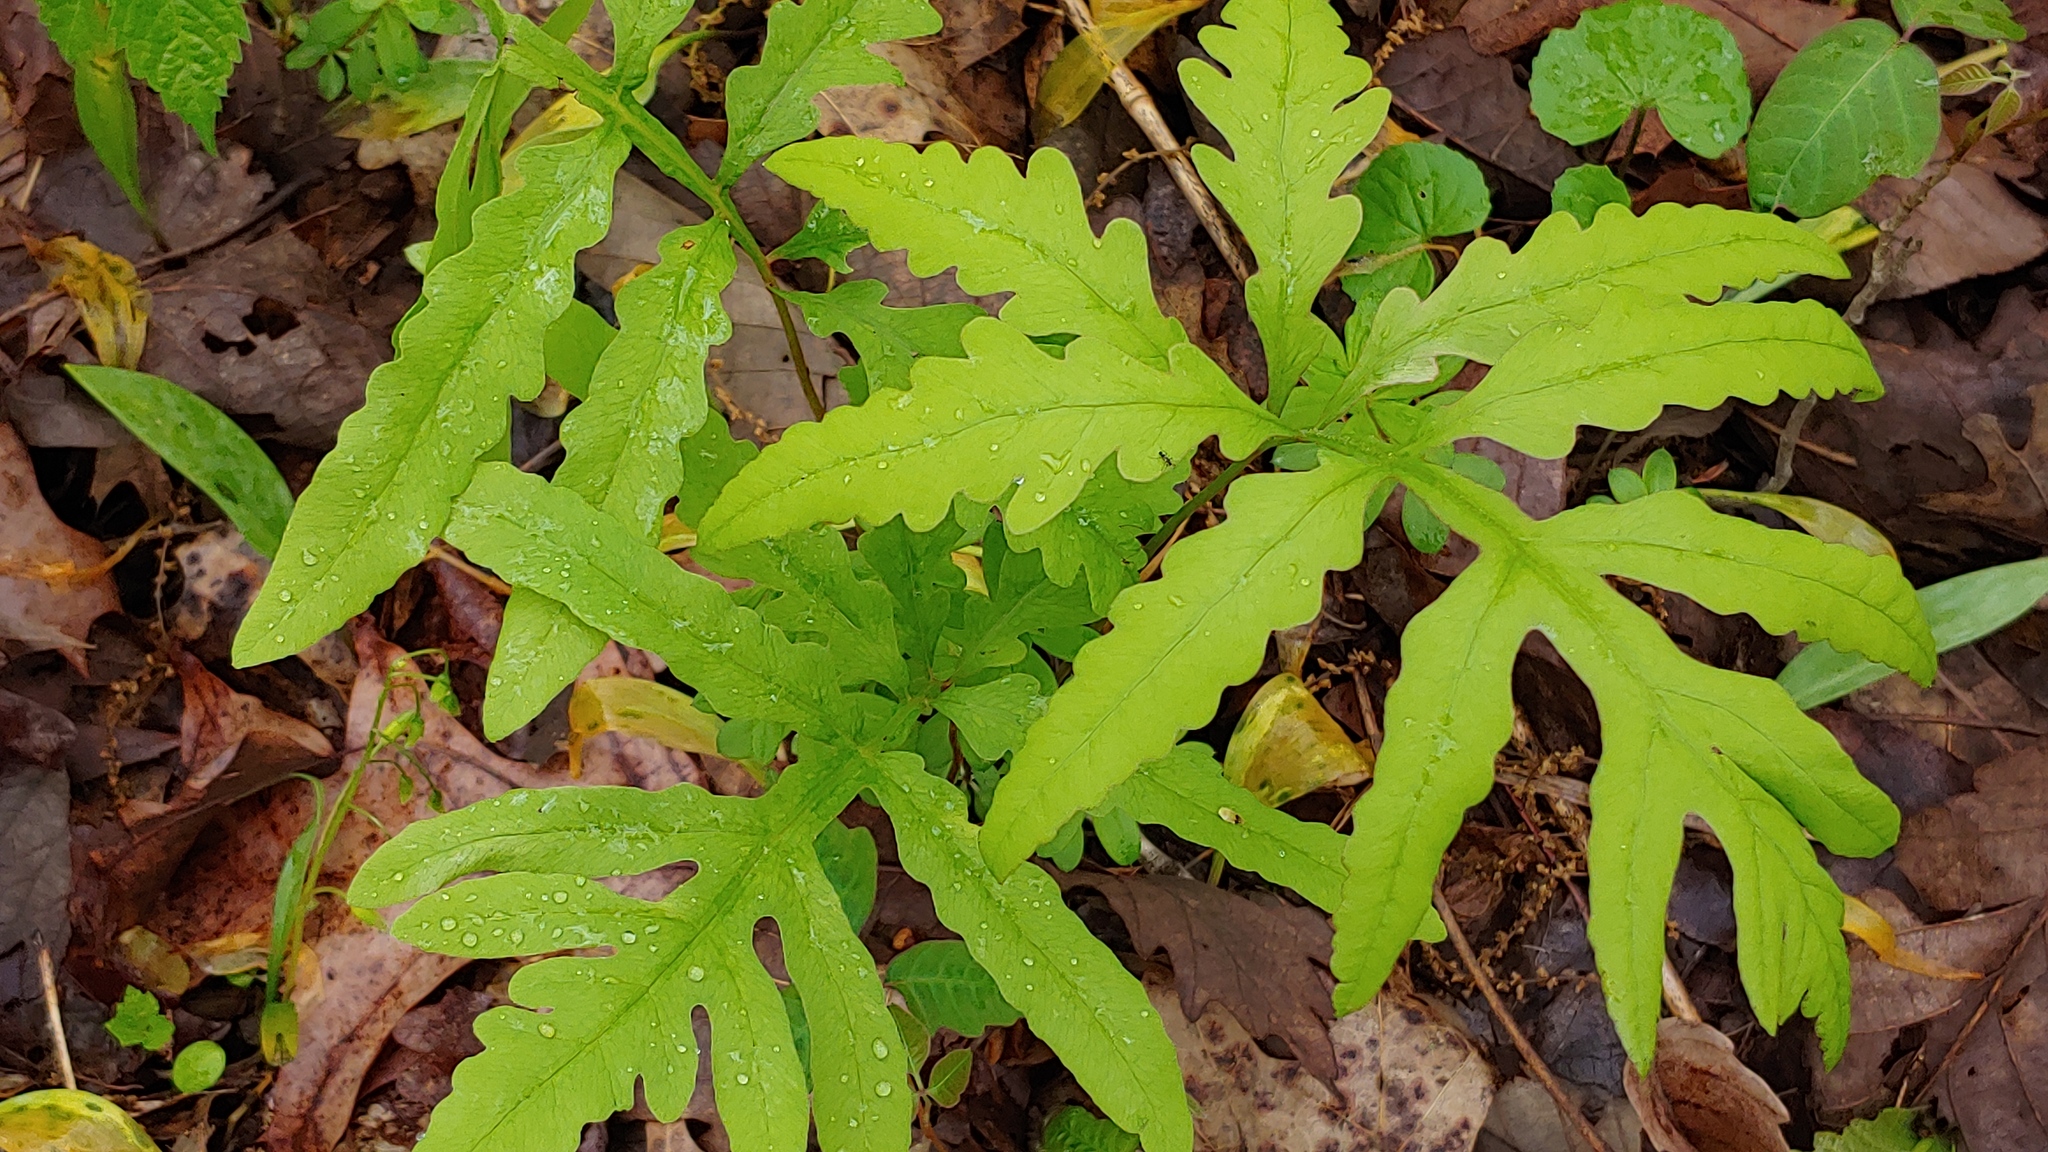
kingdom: Plantae
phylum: Tracheophyta
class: Polypodiopsida
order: Polypodiales
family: Onocleaceae
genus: Onoclea
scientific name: Onoclea sensibilis
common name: Sensitive fern
